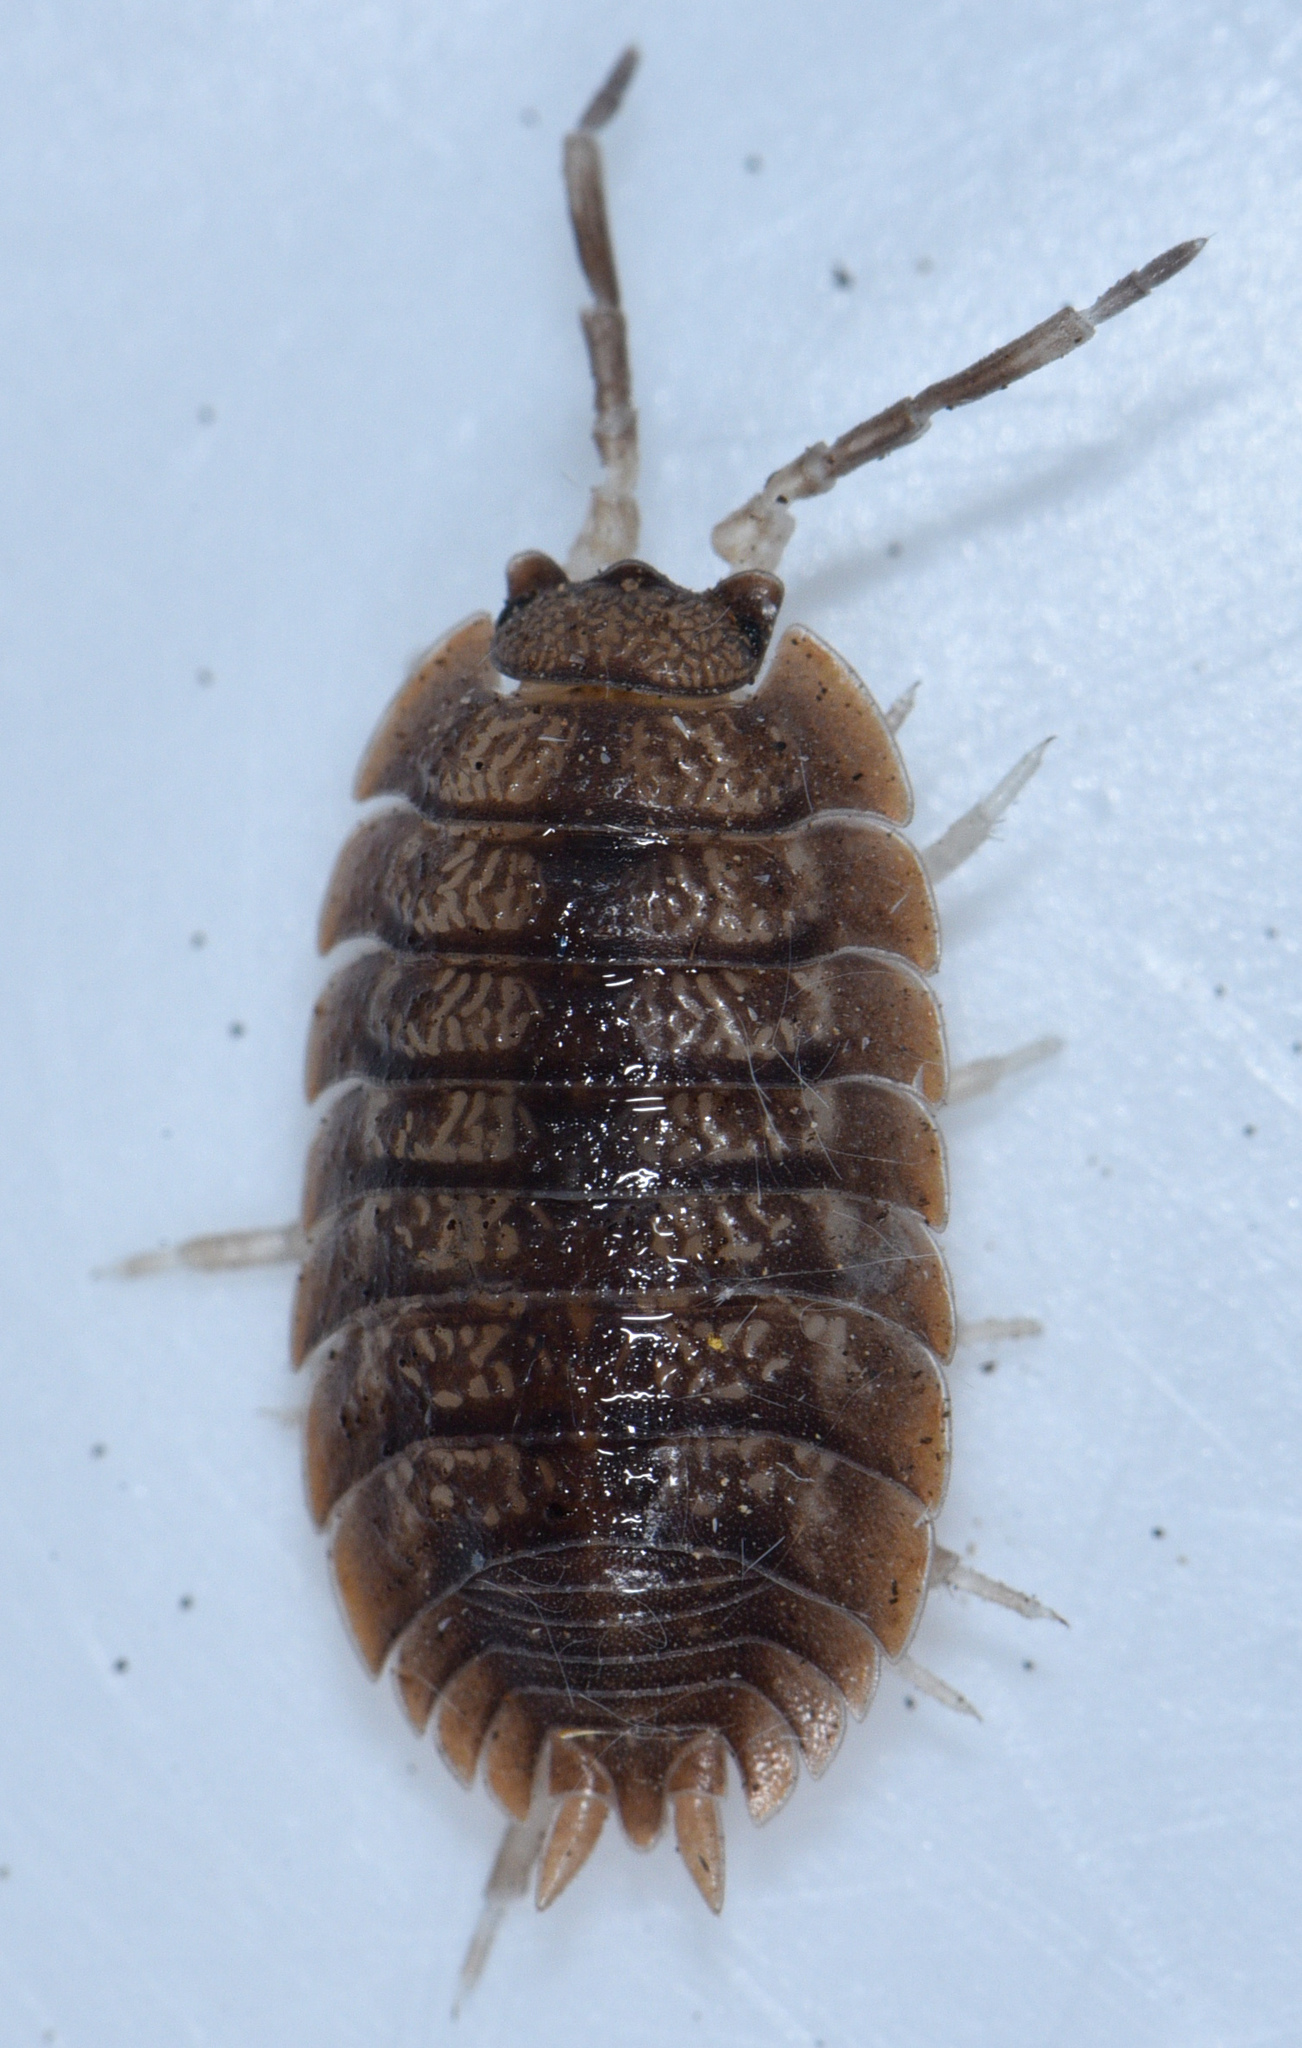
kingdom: Animalia
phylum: Arthropoda
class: Malacostraca
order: Isopoda
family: Porcellionidae
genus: Porcellio
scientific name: Porcellio dilatatus
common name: Isopod
